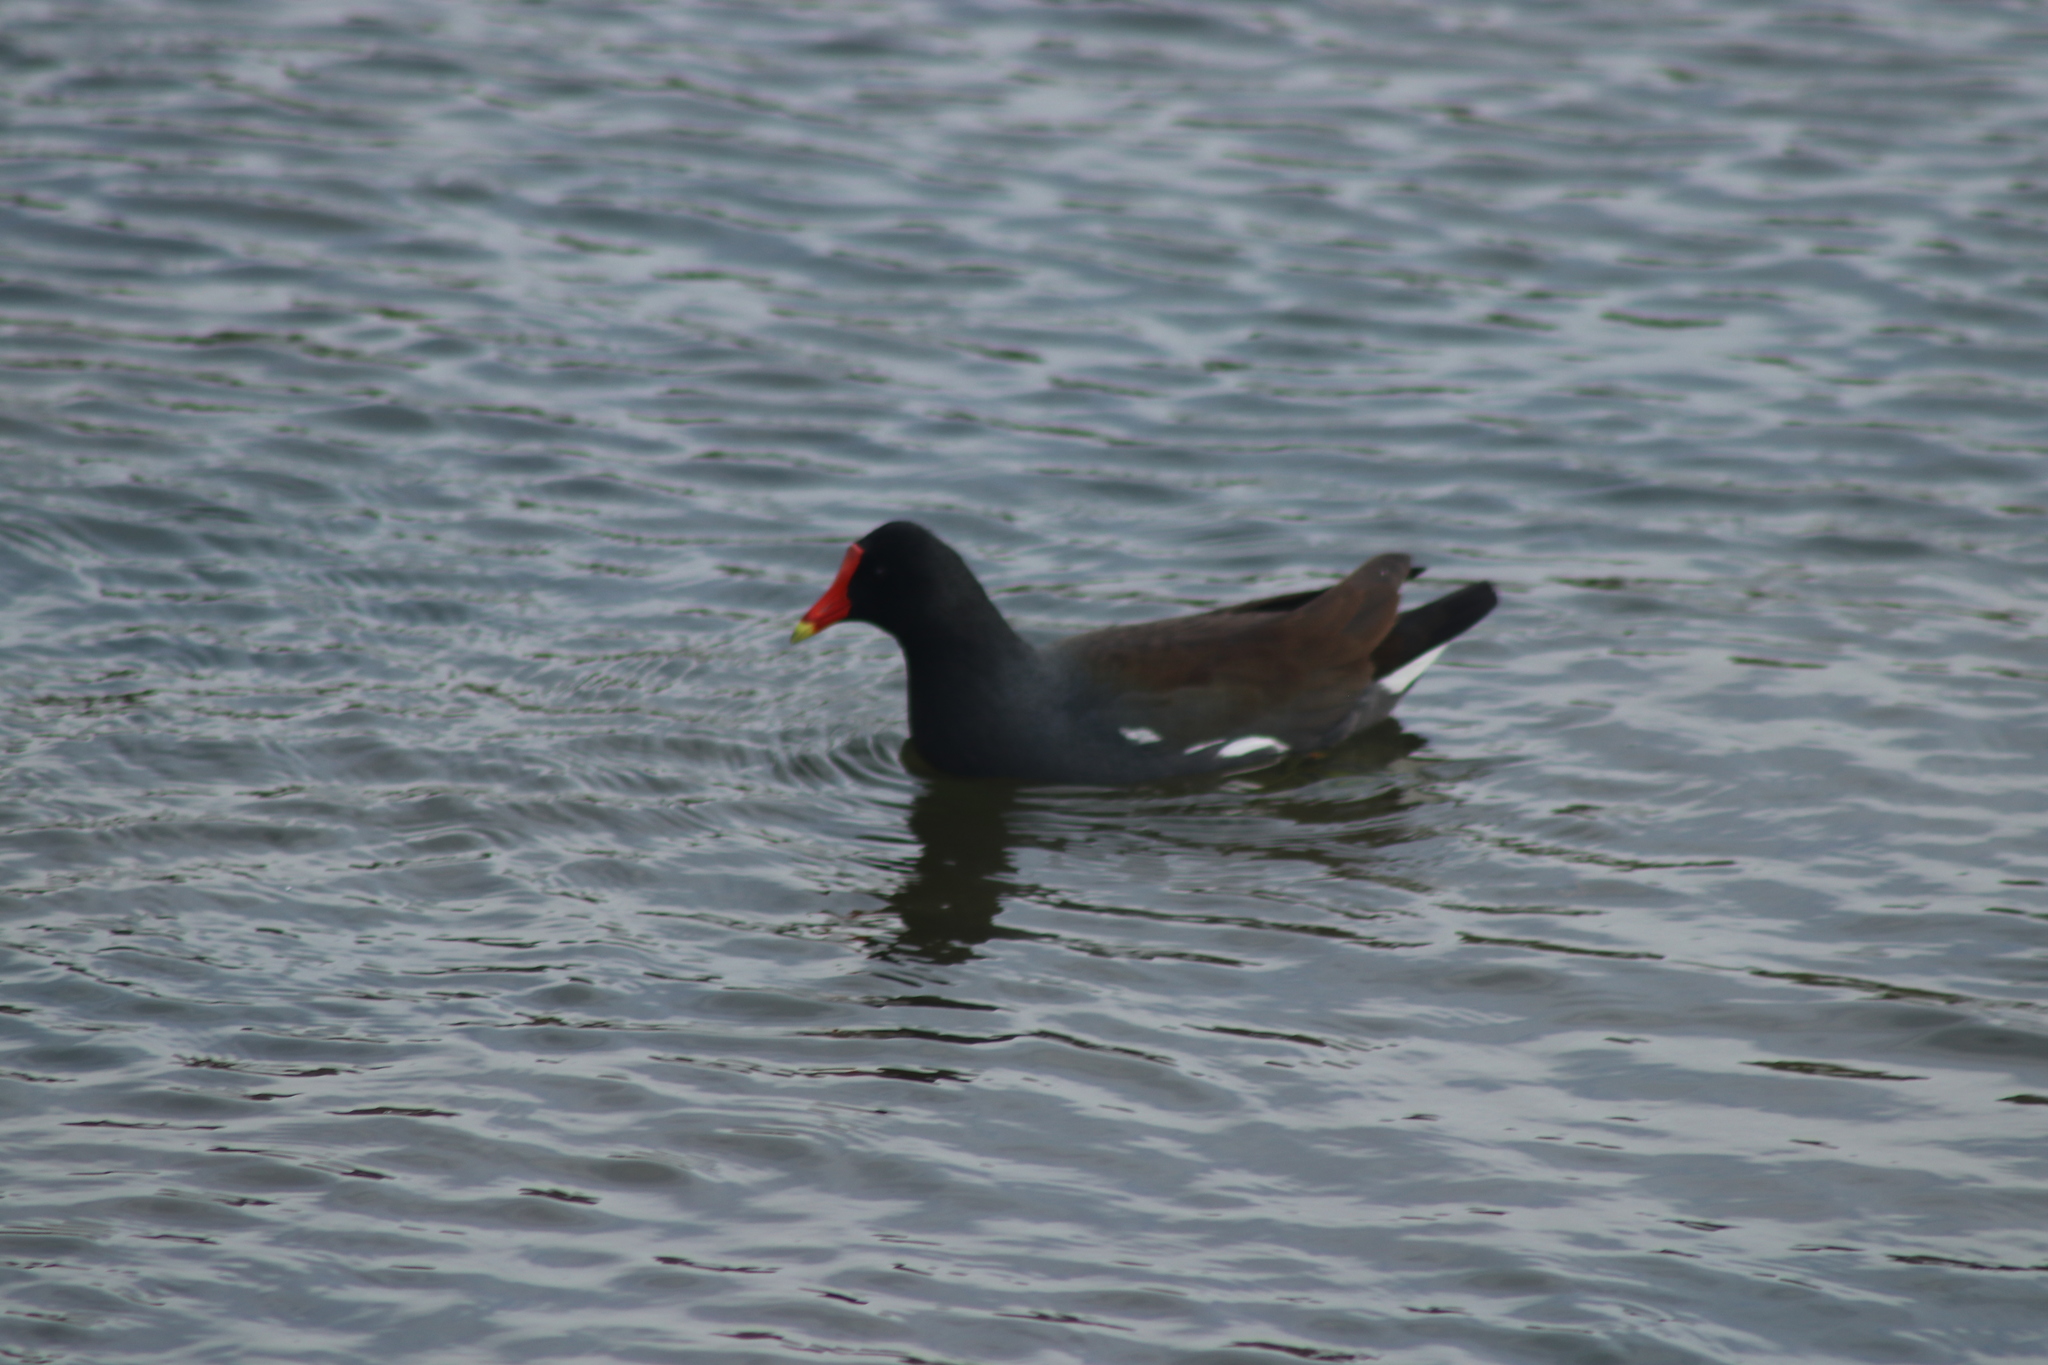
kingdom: Animalia
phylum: Chordata
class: Aves
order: Gruiformes
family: Rallidae
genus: Gallinula
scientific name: Gallinula chloropus
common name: Common moorhen
